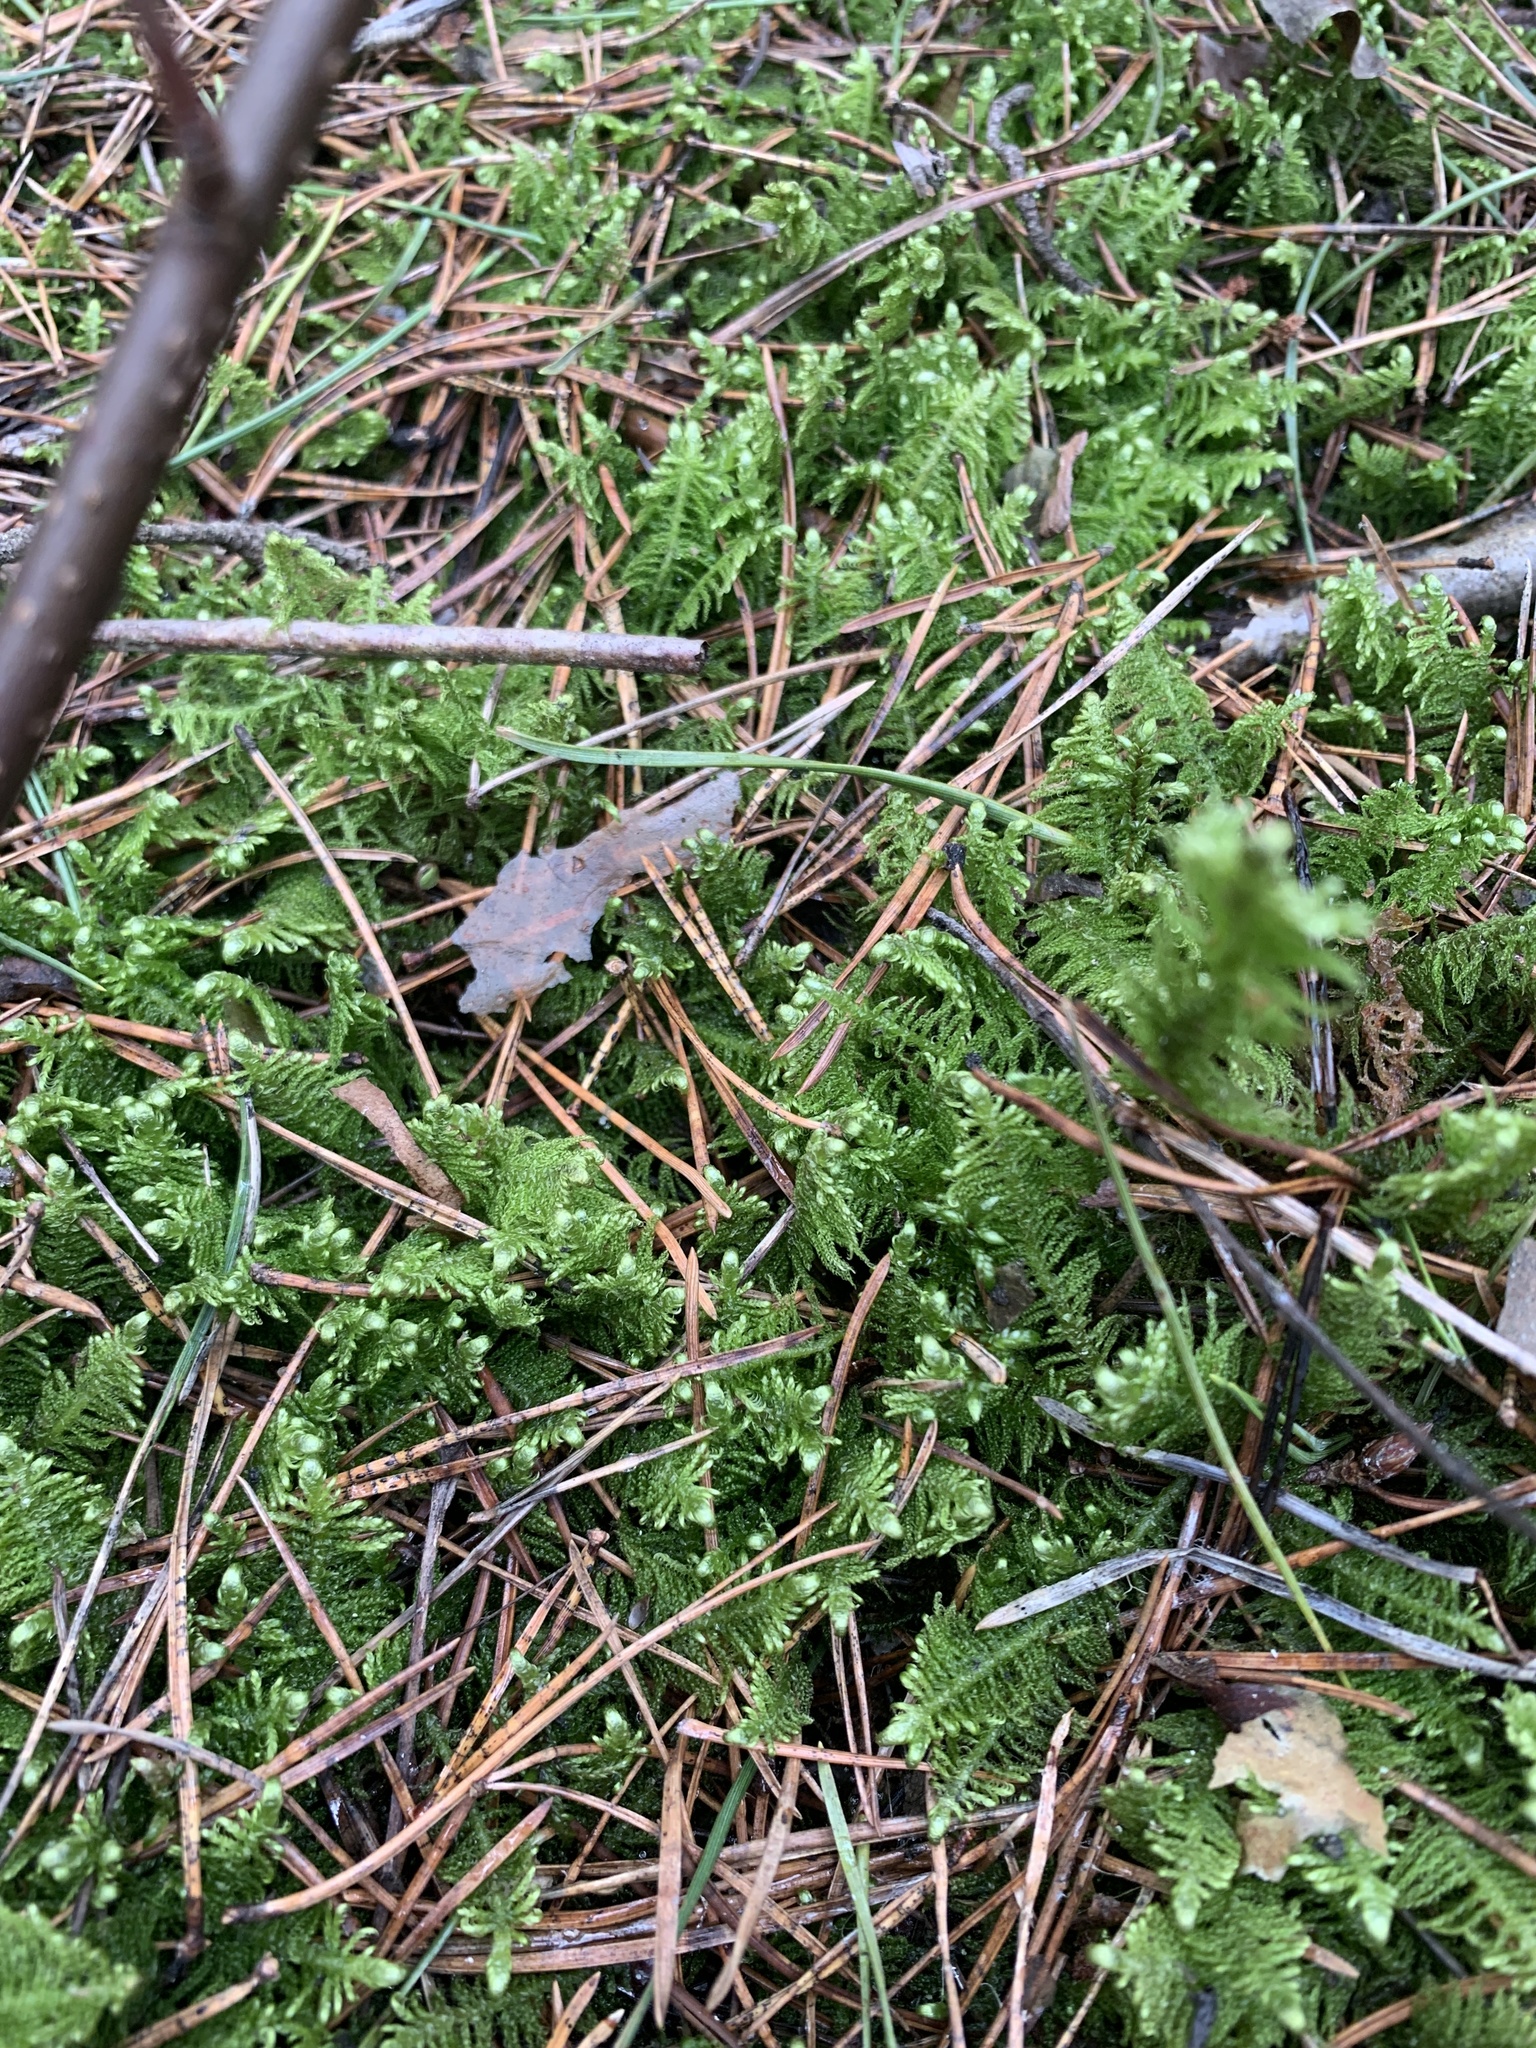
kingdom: Plantae
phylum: Bryophyta
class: Bryopsida
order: Hypnales
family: Pylaisiaceae
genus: Ptilium
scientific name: Ptilium crista-castrensis
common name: Knight's plume moss
